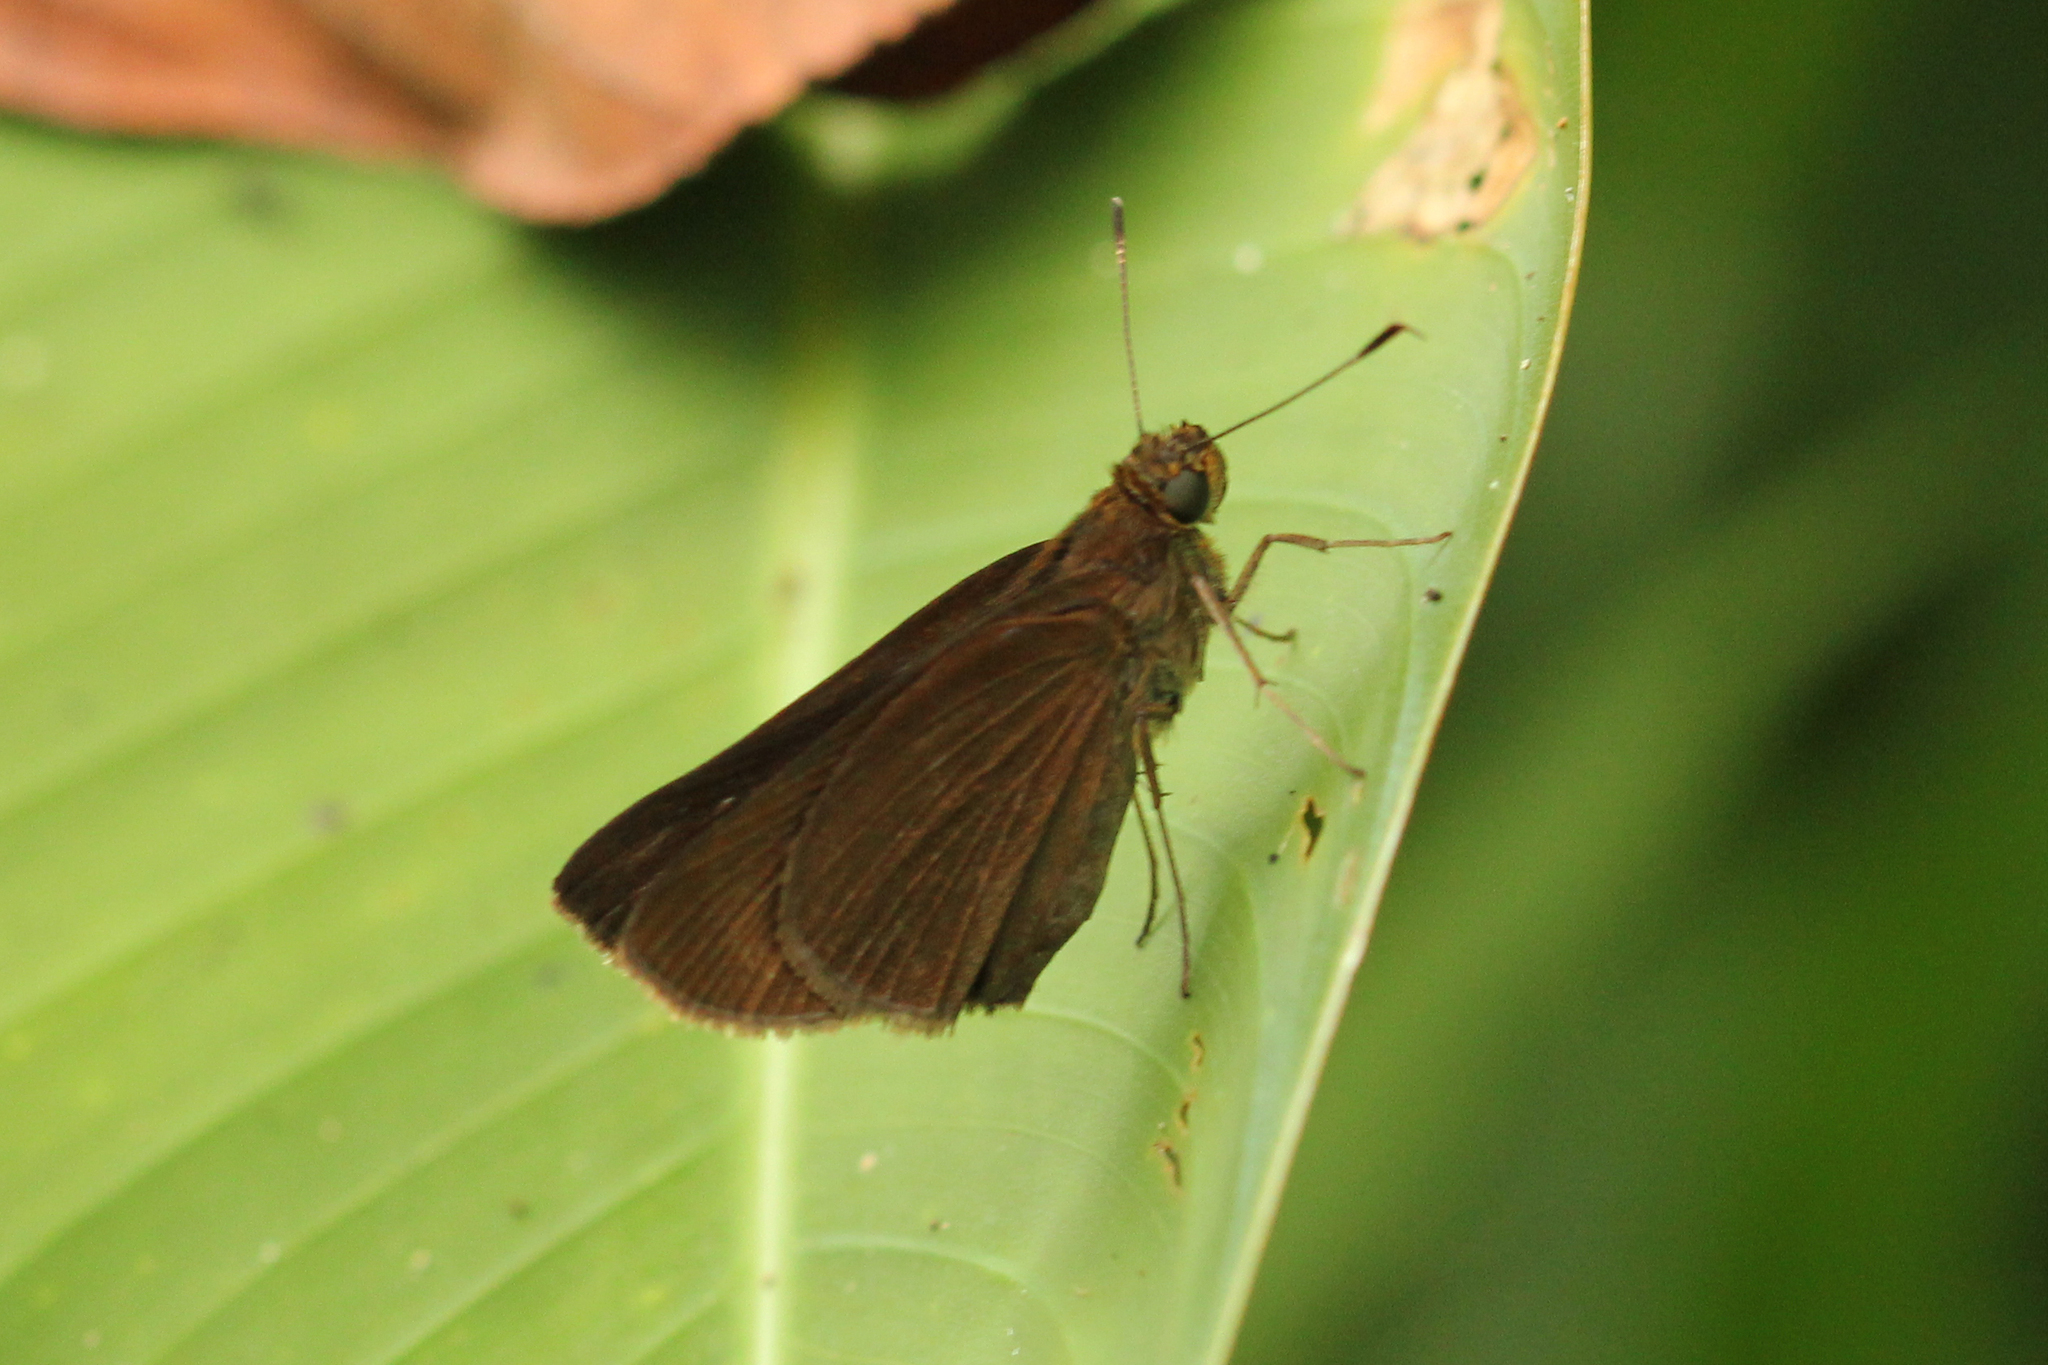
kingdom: Animalia
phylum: Arthropoda
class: Insecta
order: Lepidoptera
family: Hesperiidae
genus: Cynea
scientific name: Cynea megalops
